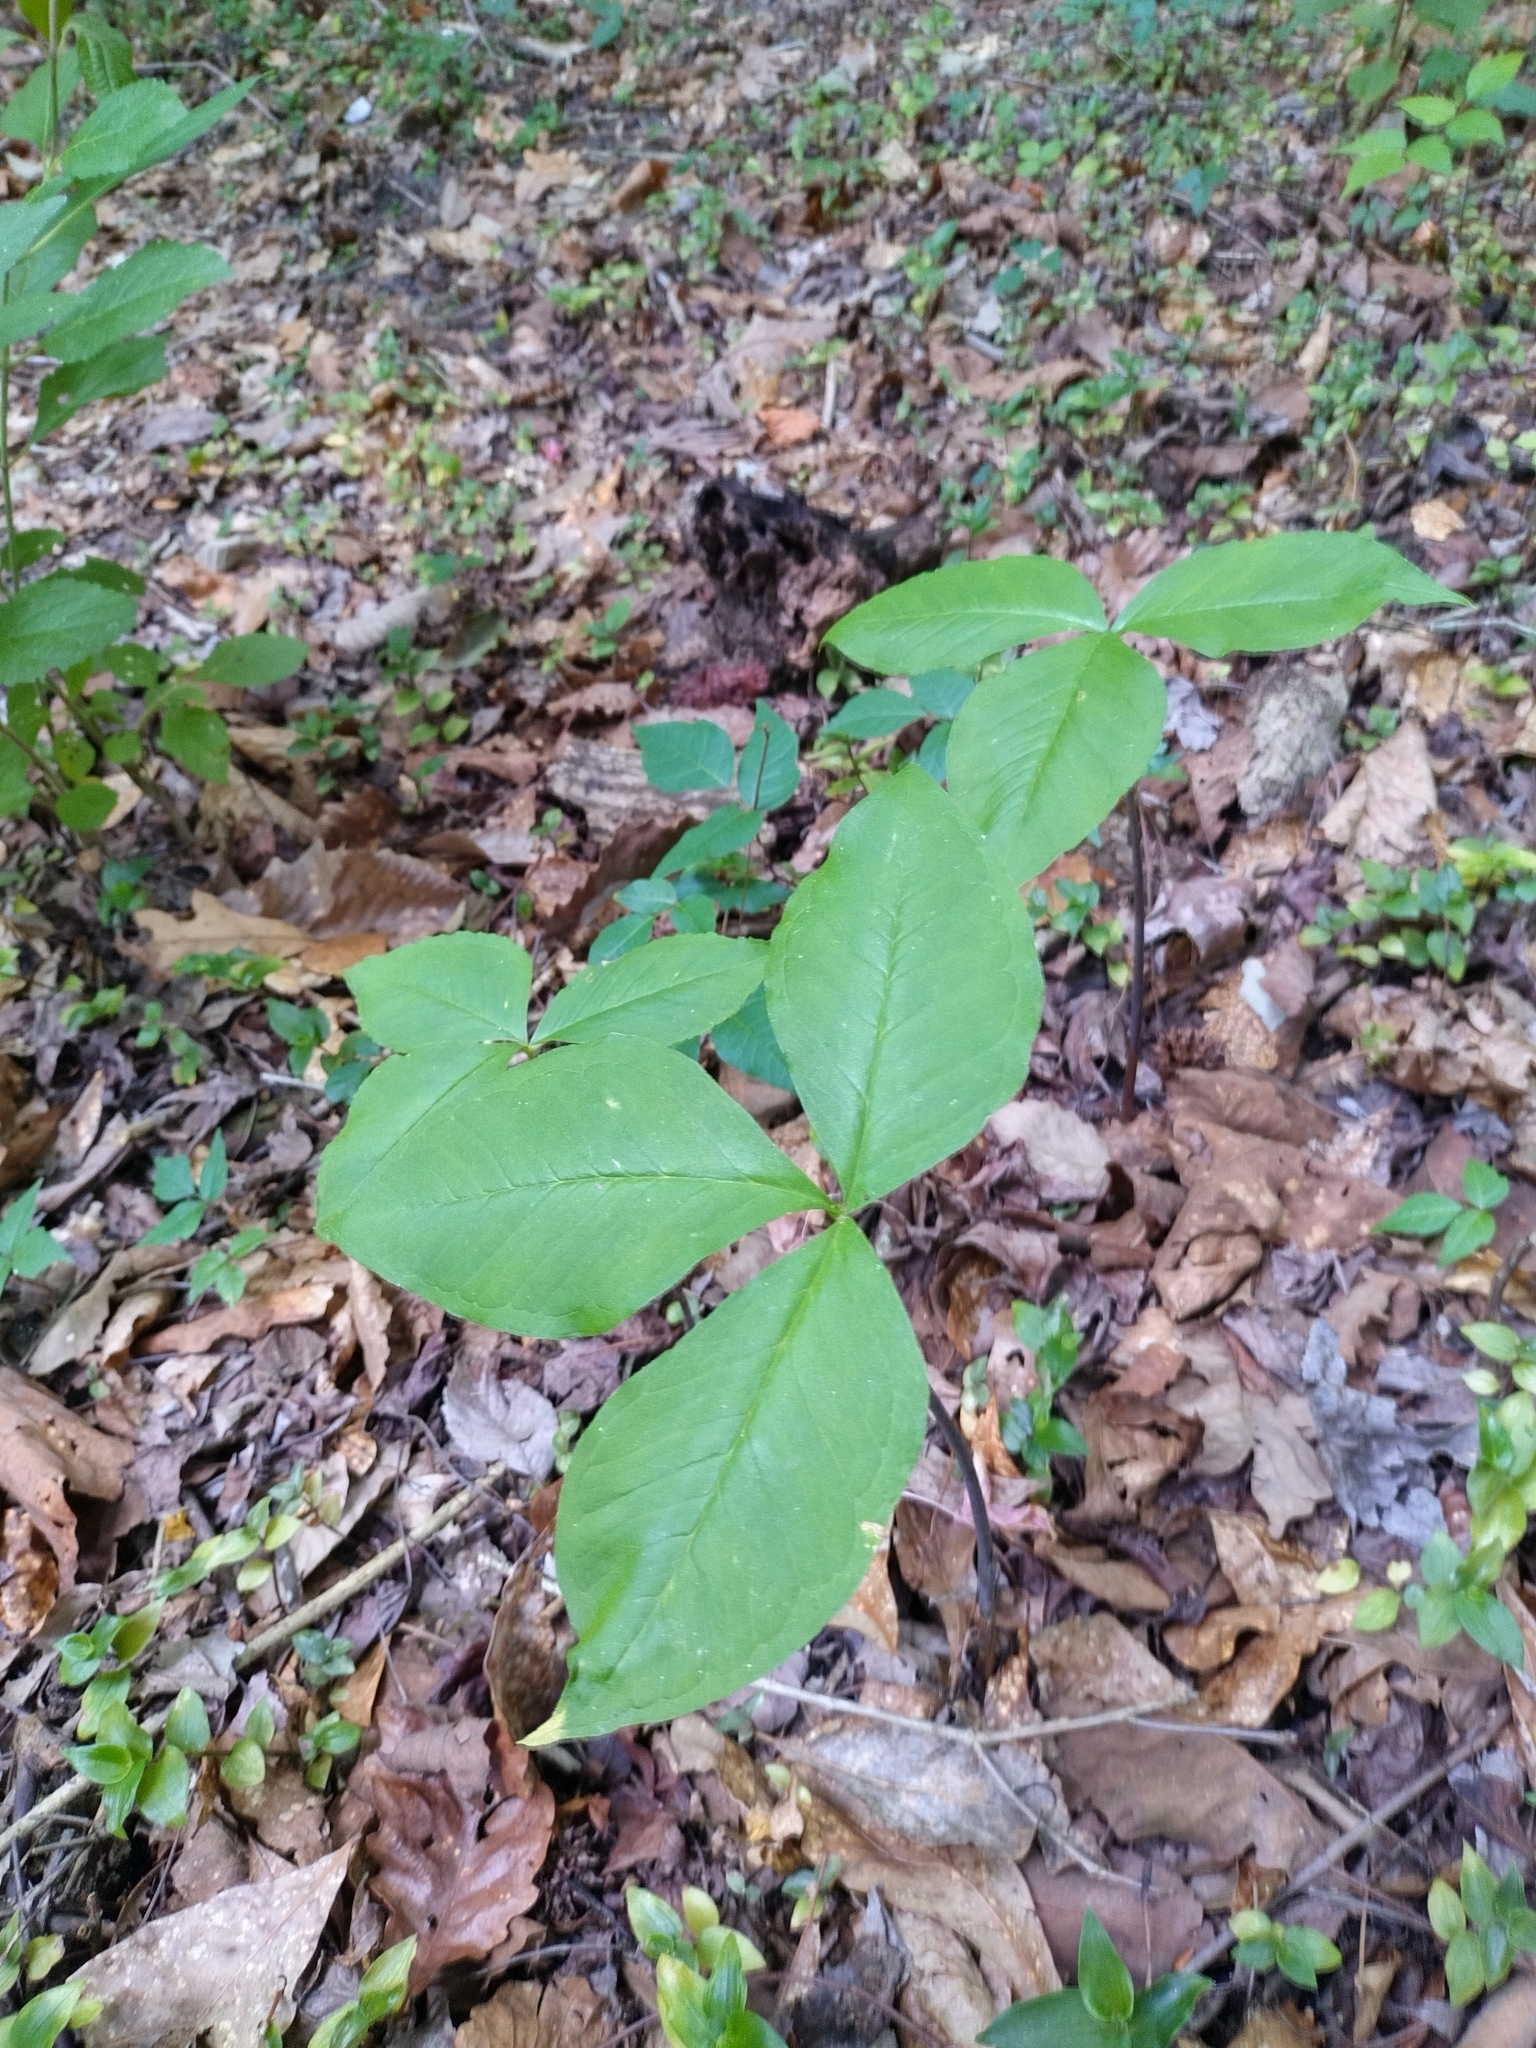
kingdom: Plantae
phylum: Tracheophyta
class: Liliopsida
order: Alismatales
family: Araceae
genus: Arisaema
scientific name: Arisaema acuminatum
